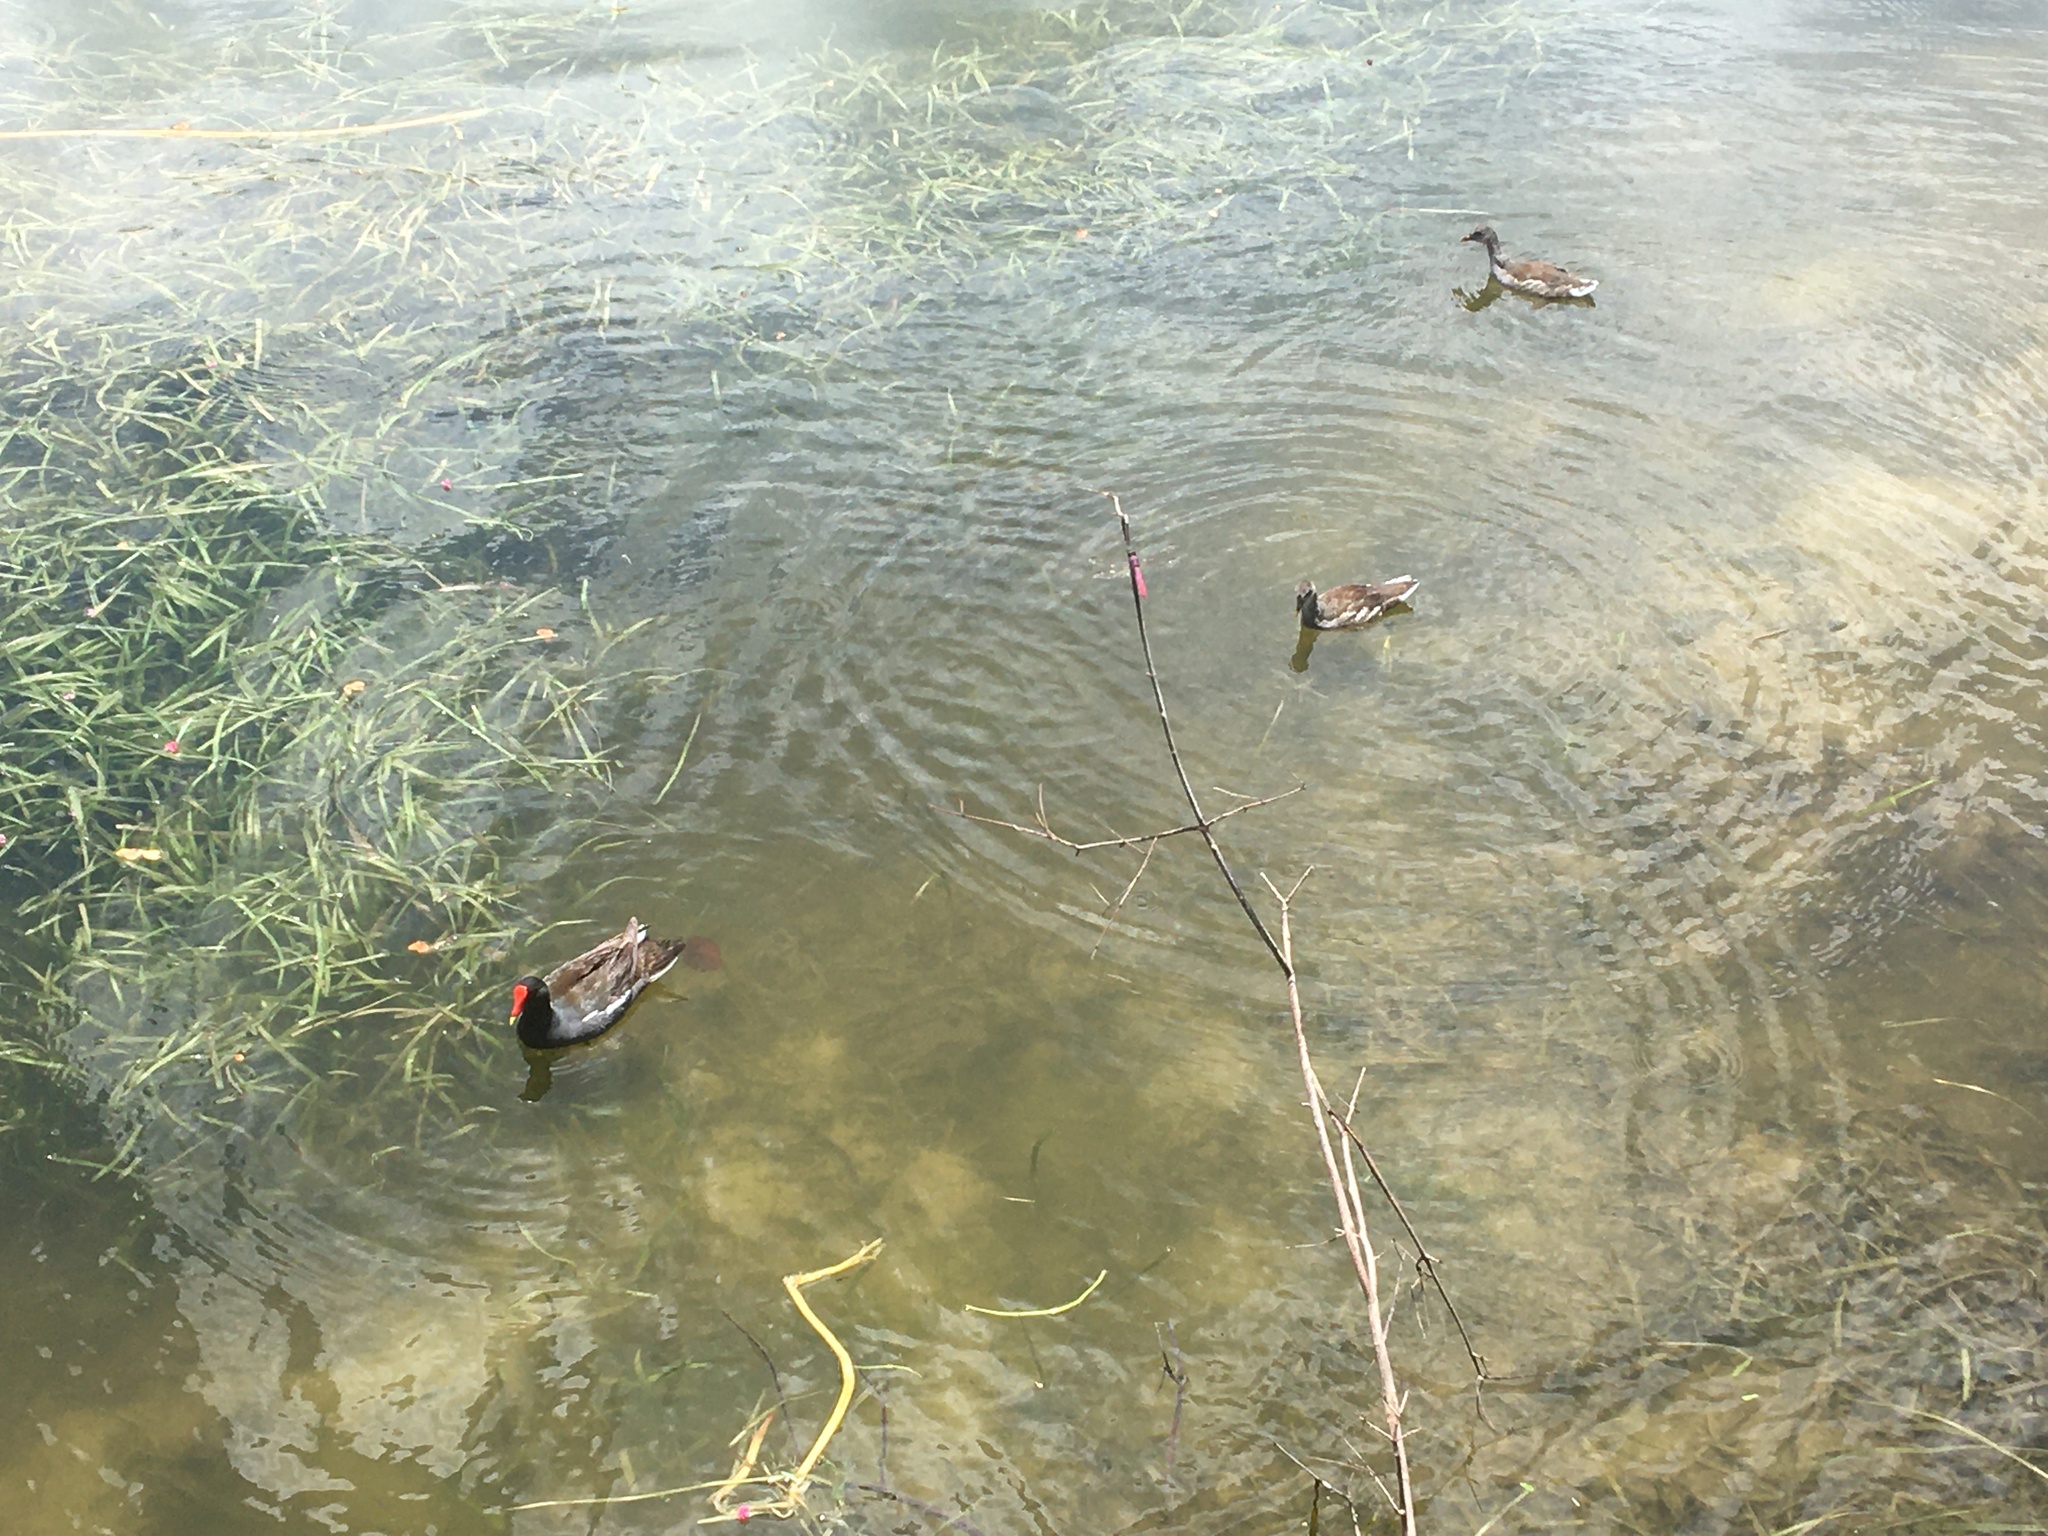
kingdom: Animalia
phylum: Chordata
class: Aves
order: Gruiformes
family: Rallidae
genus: Gallinula
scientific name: Gallinula chloropus
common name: Common moorhen
